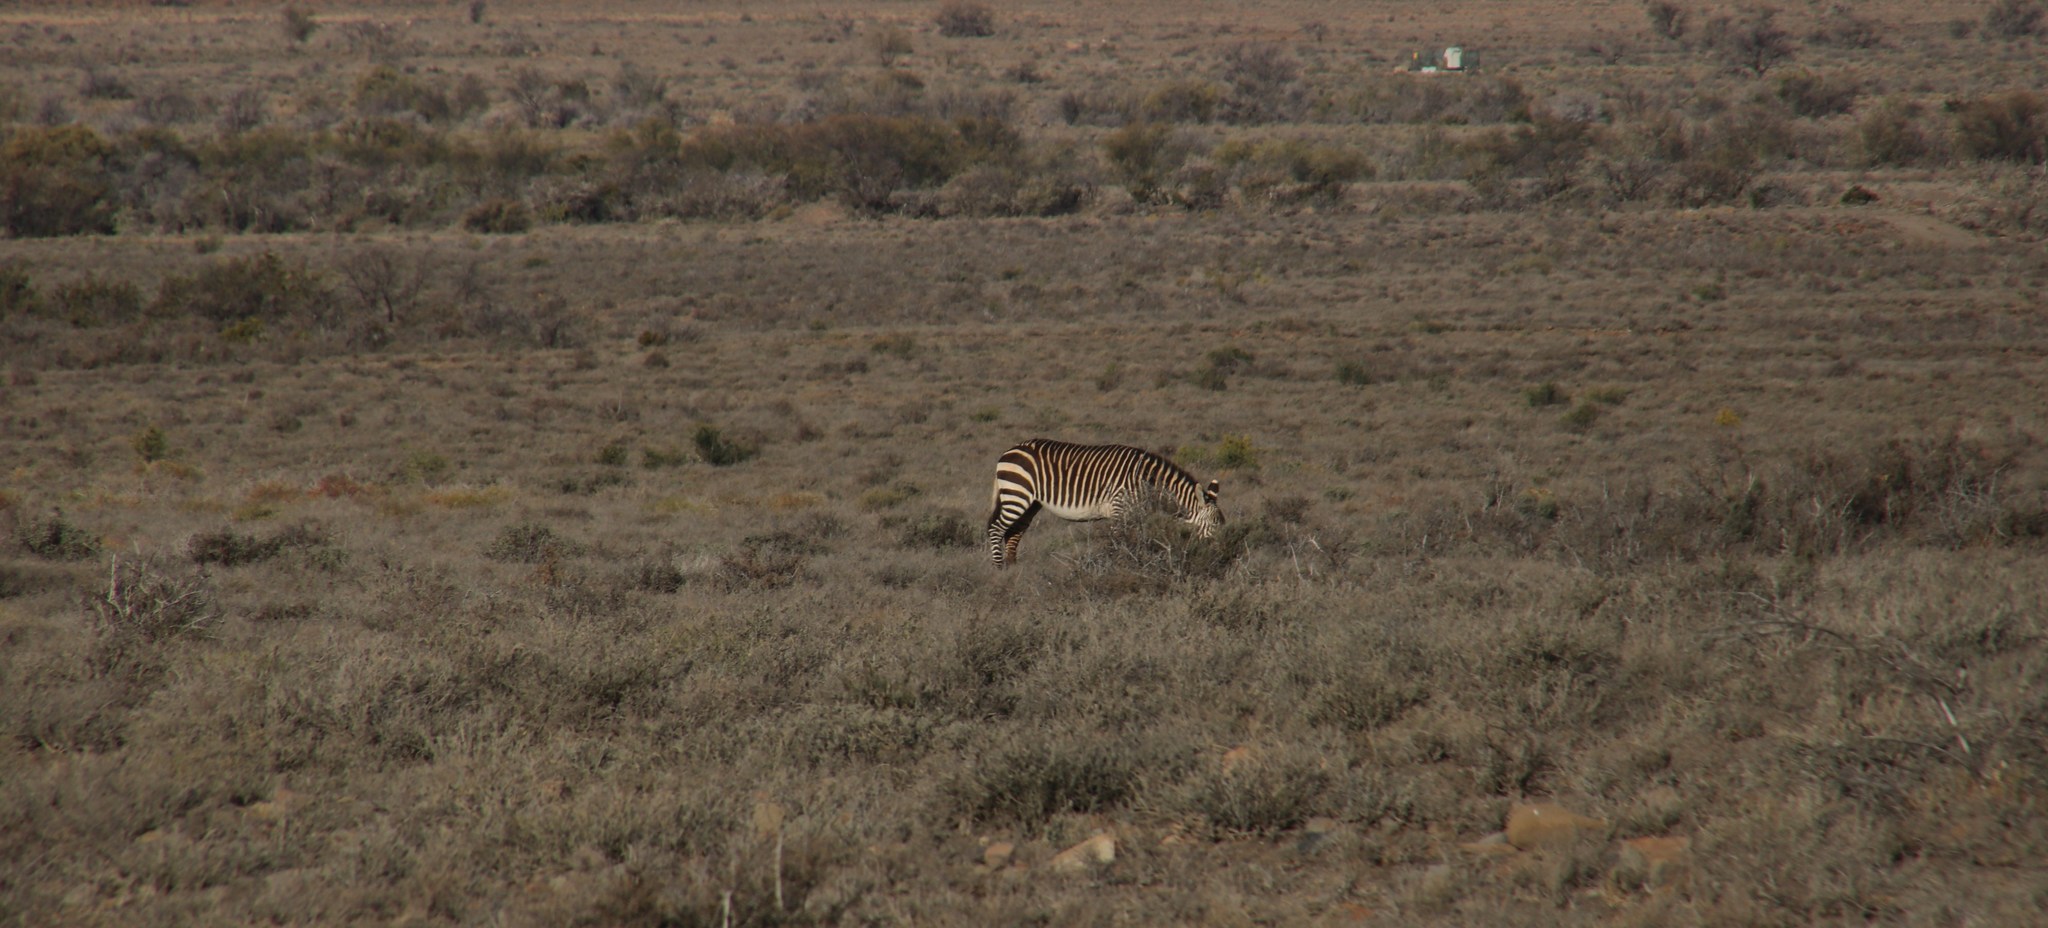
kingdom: Animalia
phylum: Chordata
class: Mammalia
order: Perissodactyla
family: Equidae
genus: Equus
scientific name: Equus zebra
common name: Mountain zebra
